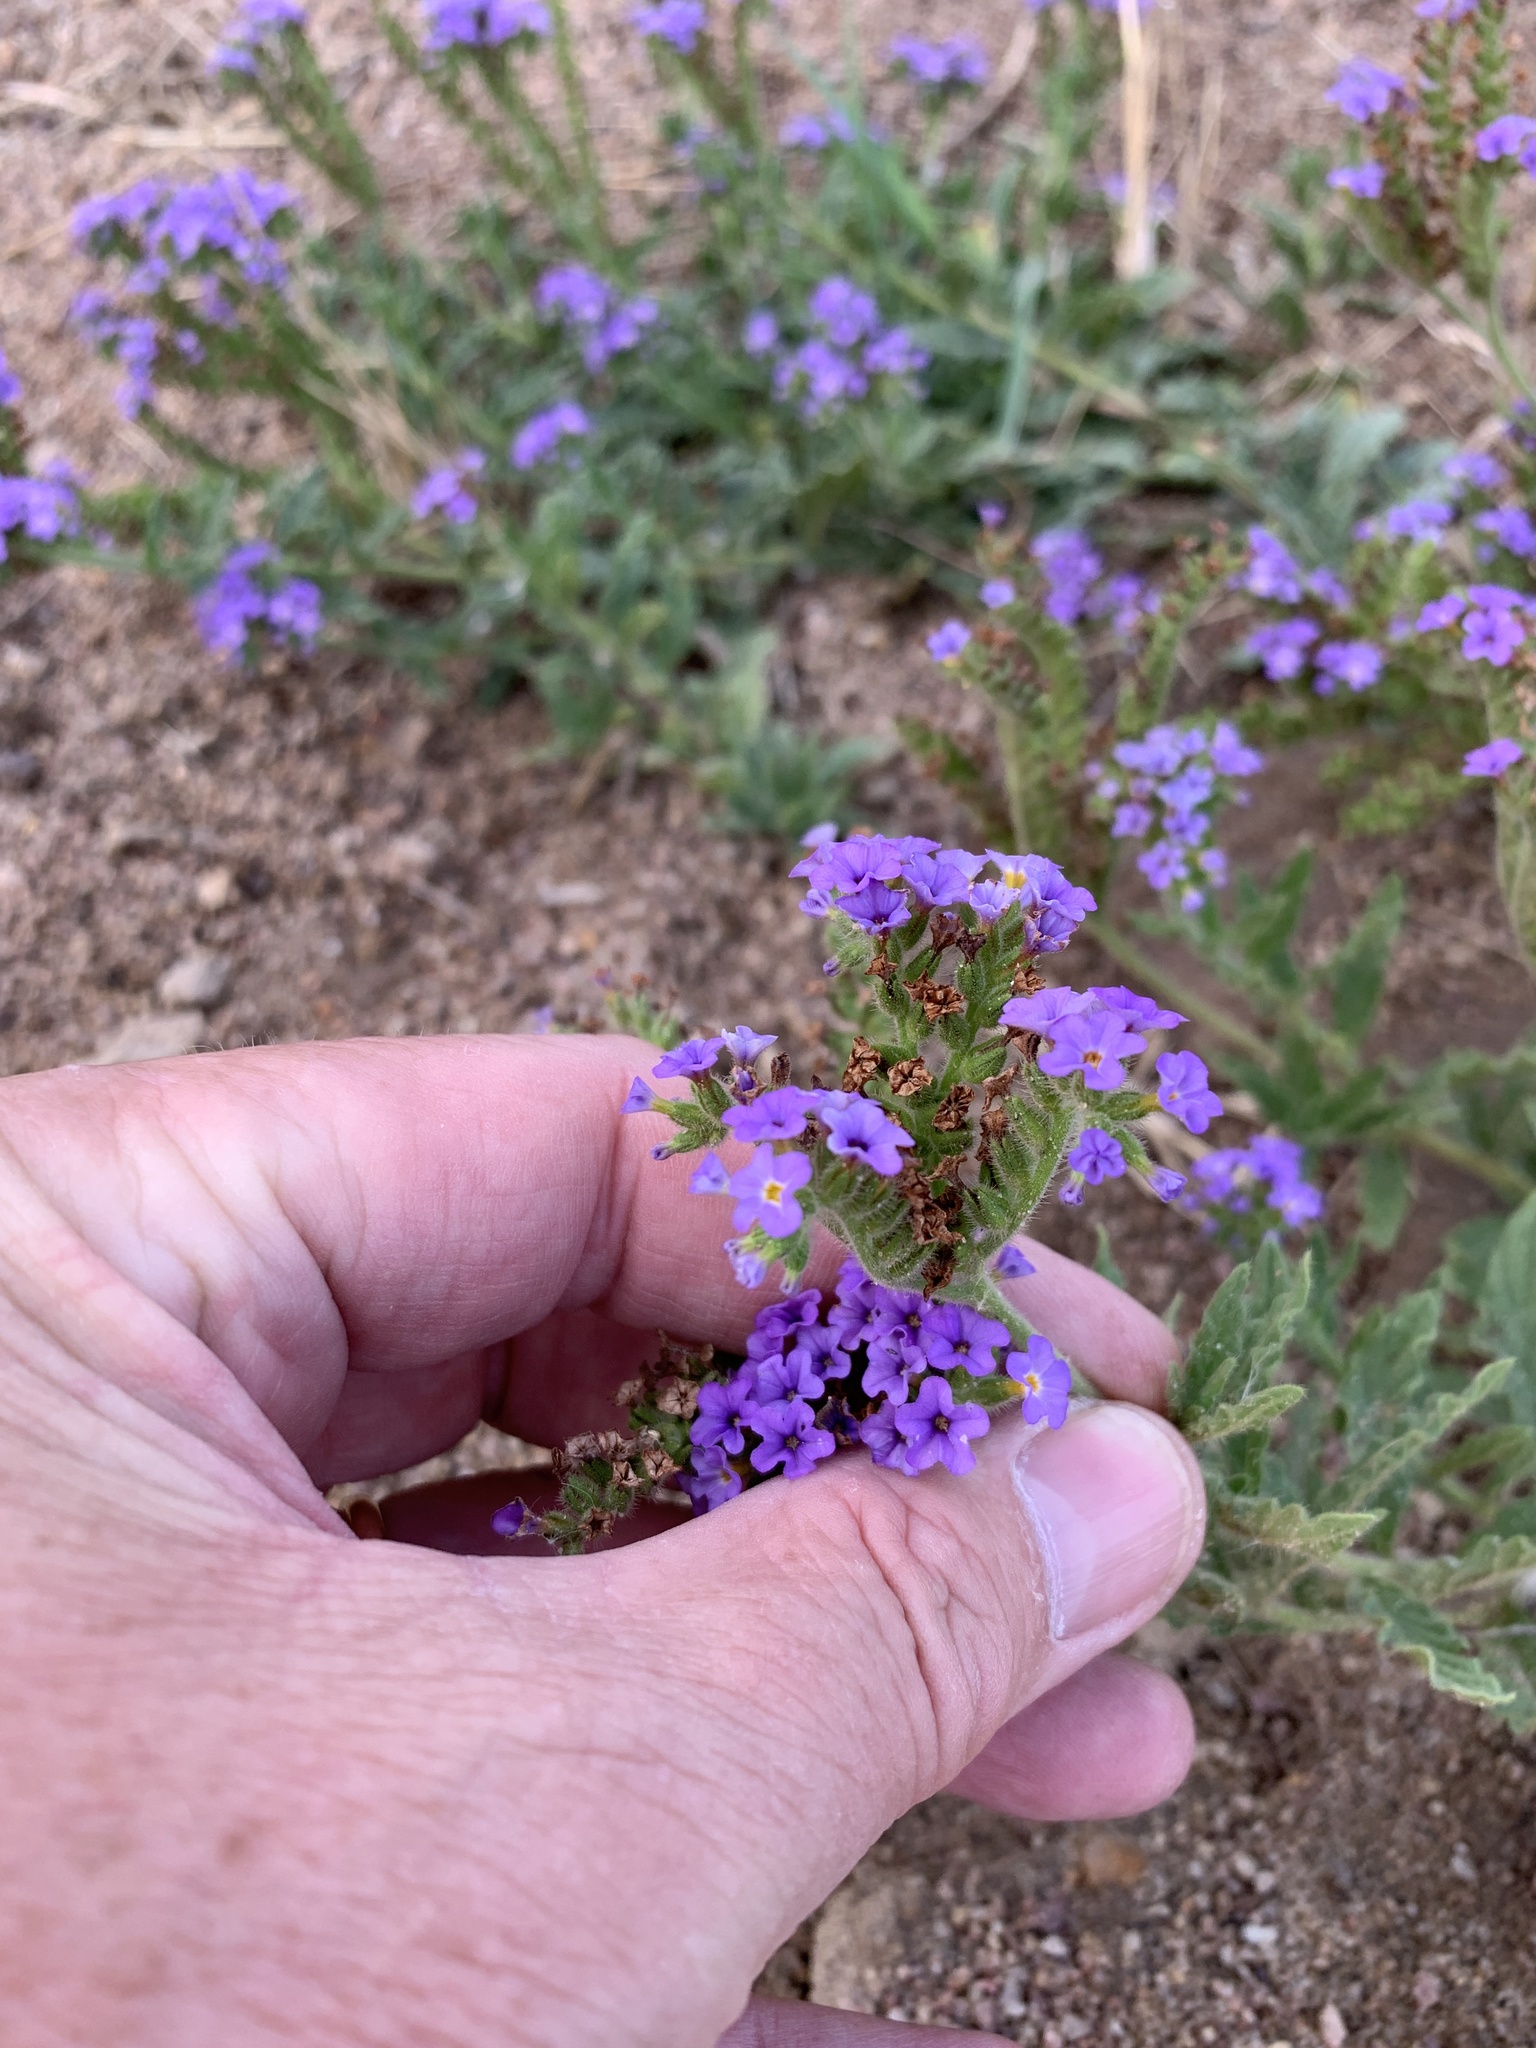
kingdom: Plantae
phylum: Tracheophyta
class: Magnoliopsida
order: Boraginales
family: Heliotropiaceae
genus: Heliotropium
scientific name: Heliotropium amplexicaule
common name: Clasping heliotrope
